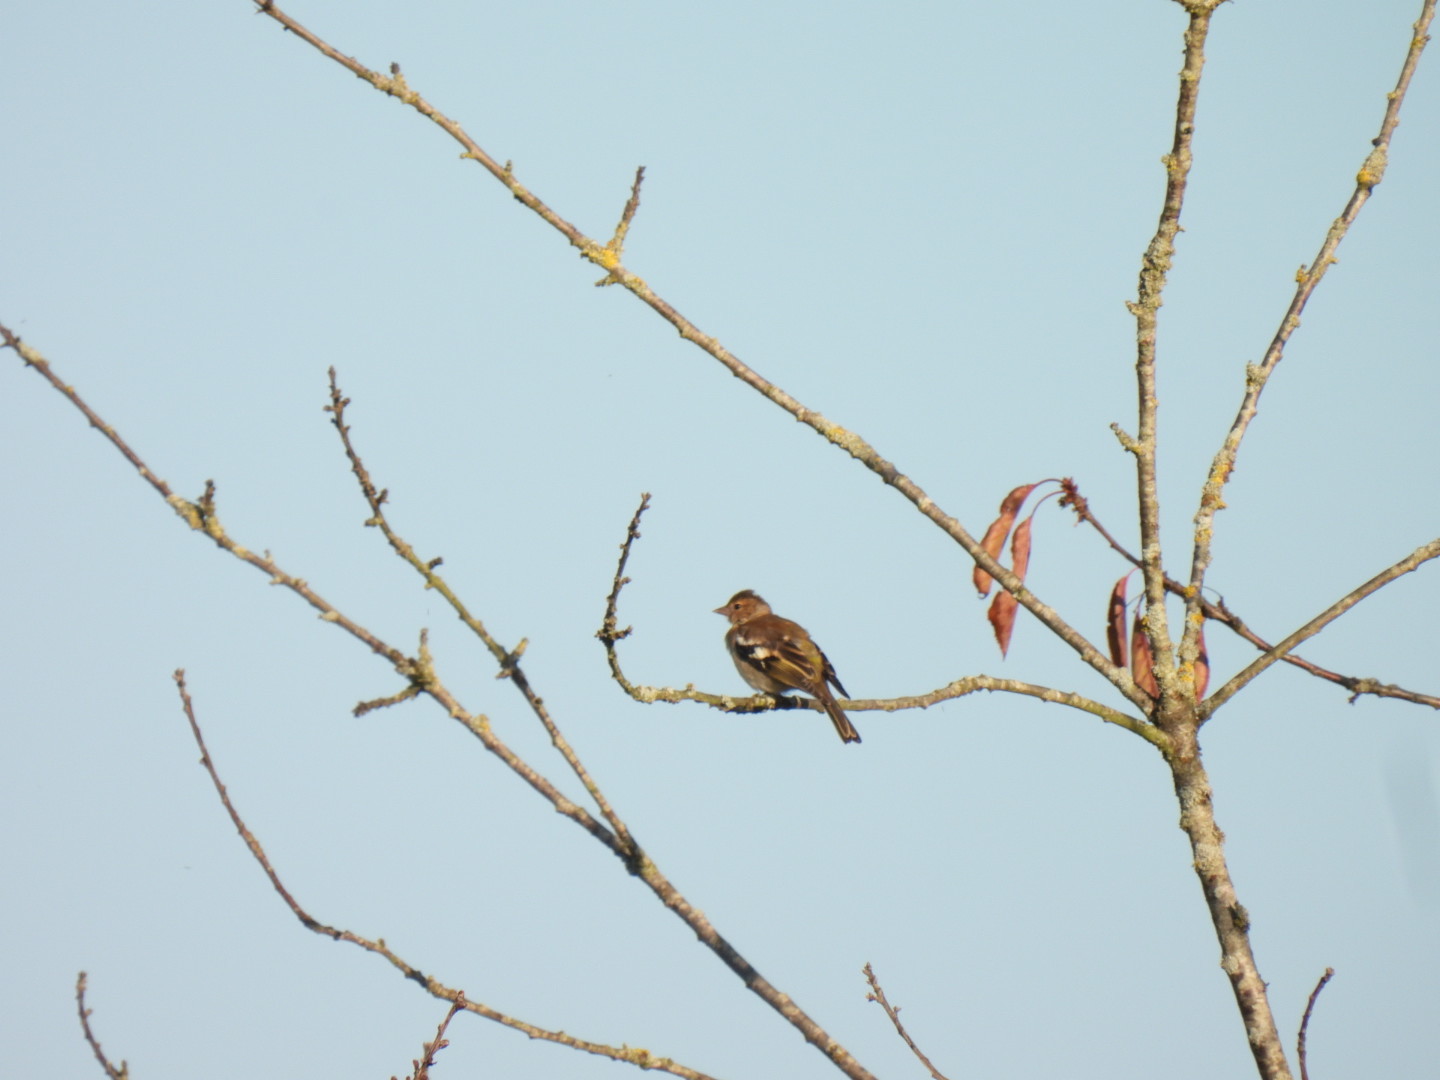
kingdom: Animalia
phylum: Chordata
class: Aves
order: Passeriformes
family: Fringillidae
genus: Fringilla
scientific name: Fringilla coelebs
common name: Common chaffinch
